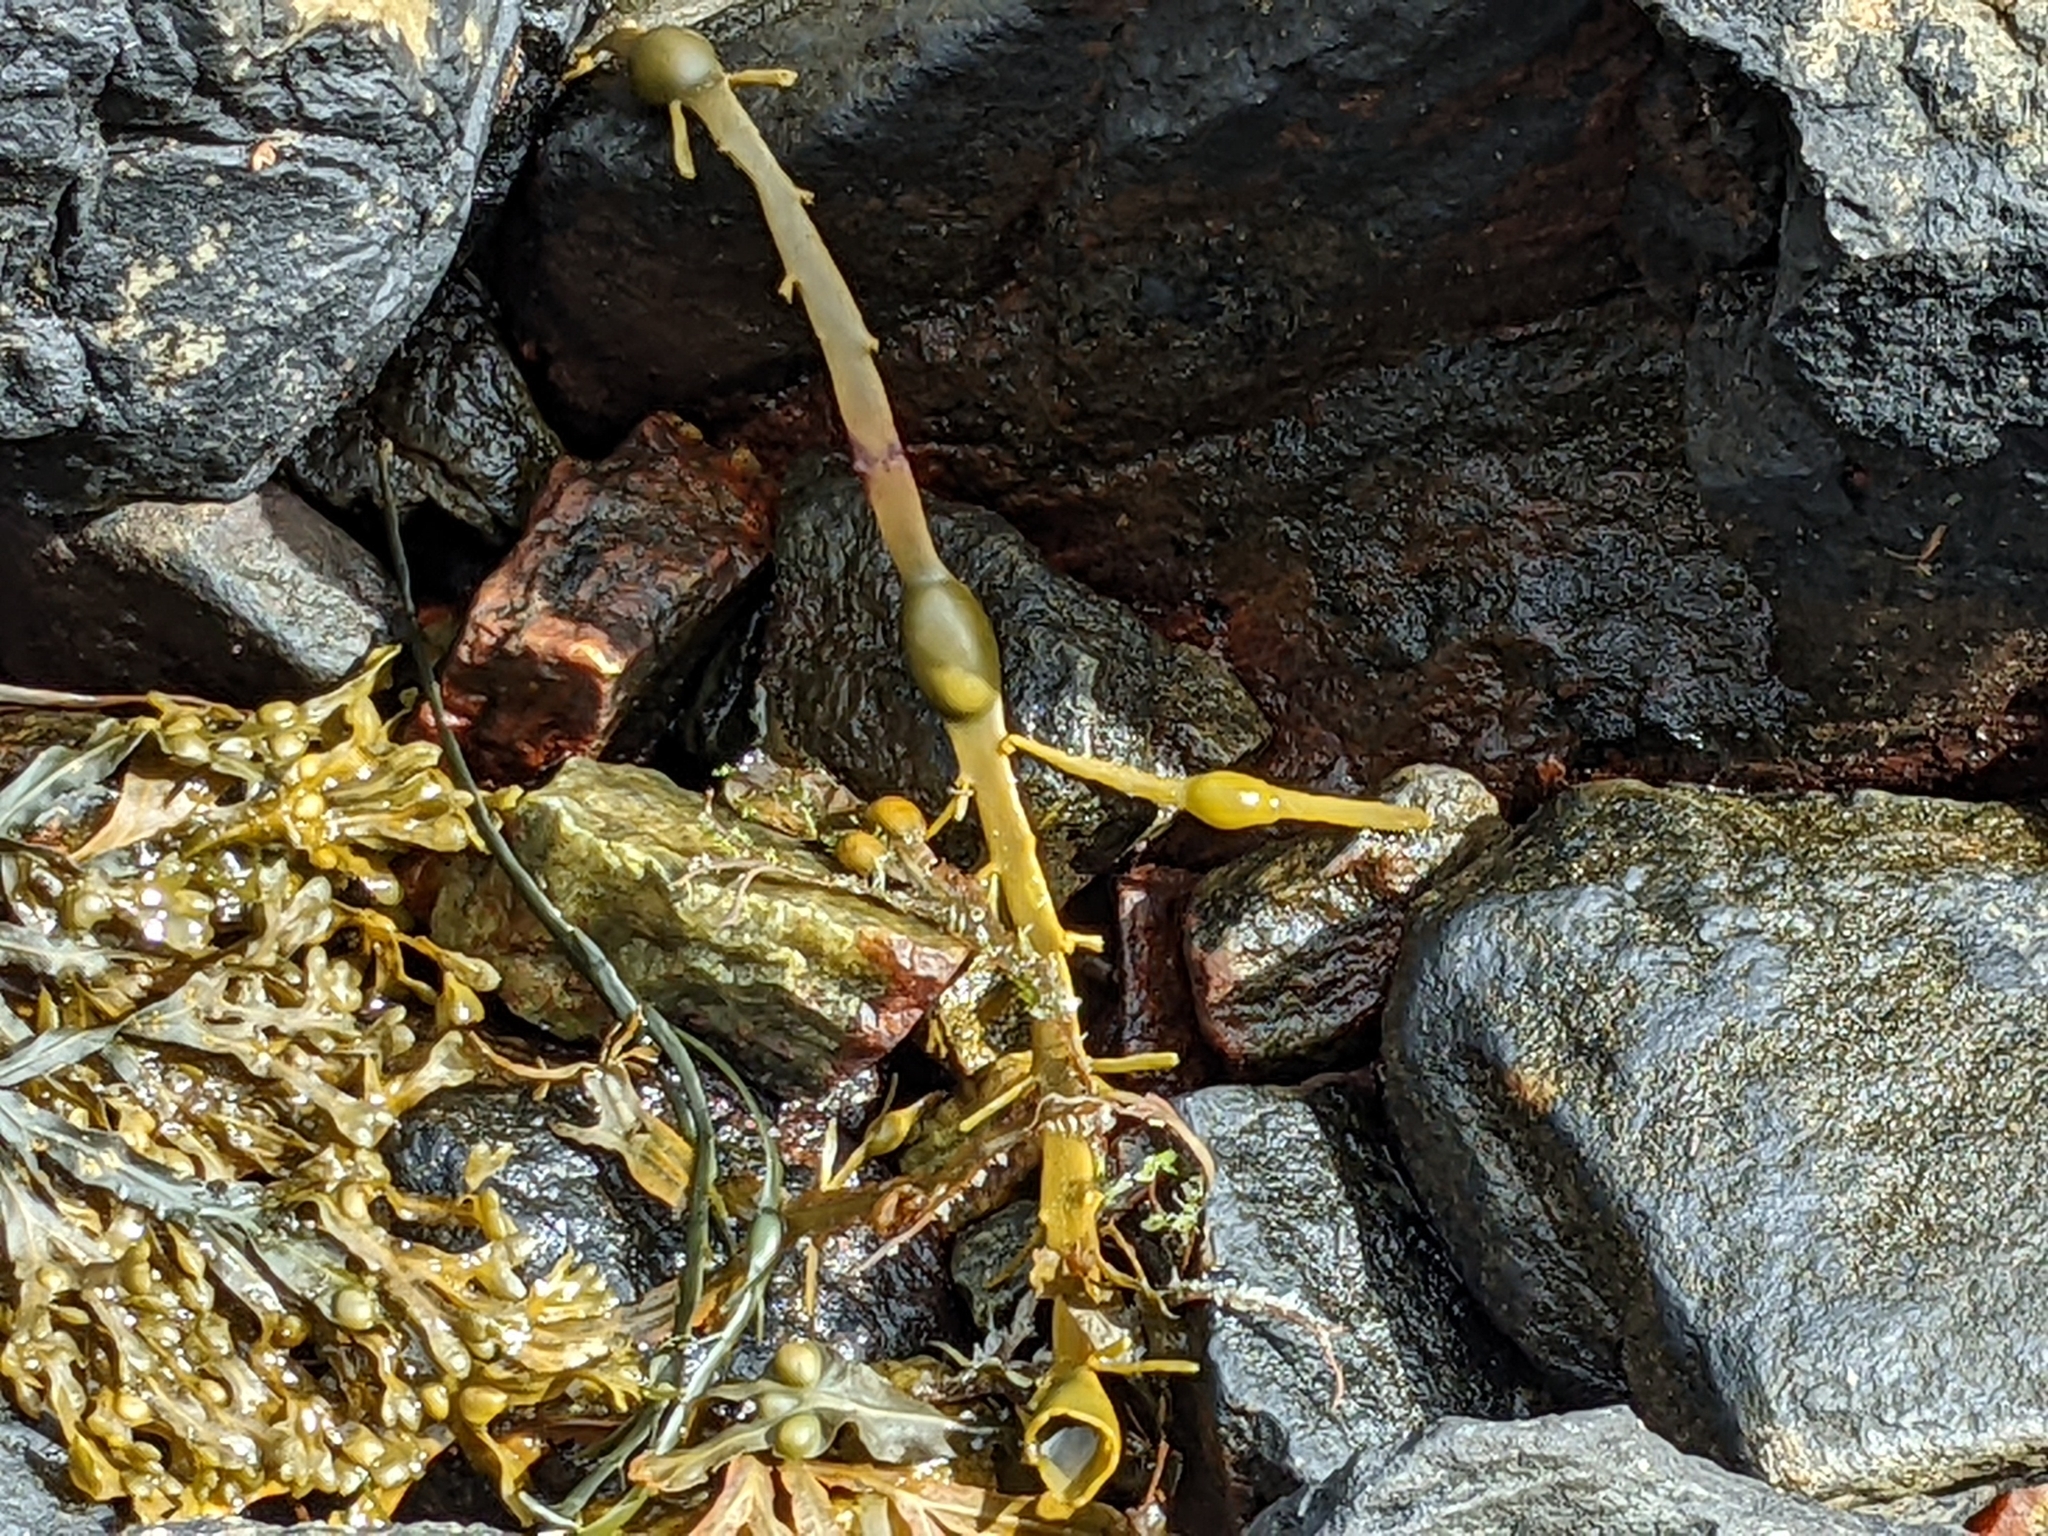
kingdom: Chromista
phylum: Ochrophyta
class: Phaeophyceae
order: Fucales
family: Fucaceae
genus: Ascophyllum
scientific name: Ascophyllum nodosum
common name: Knotted wrack
